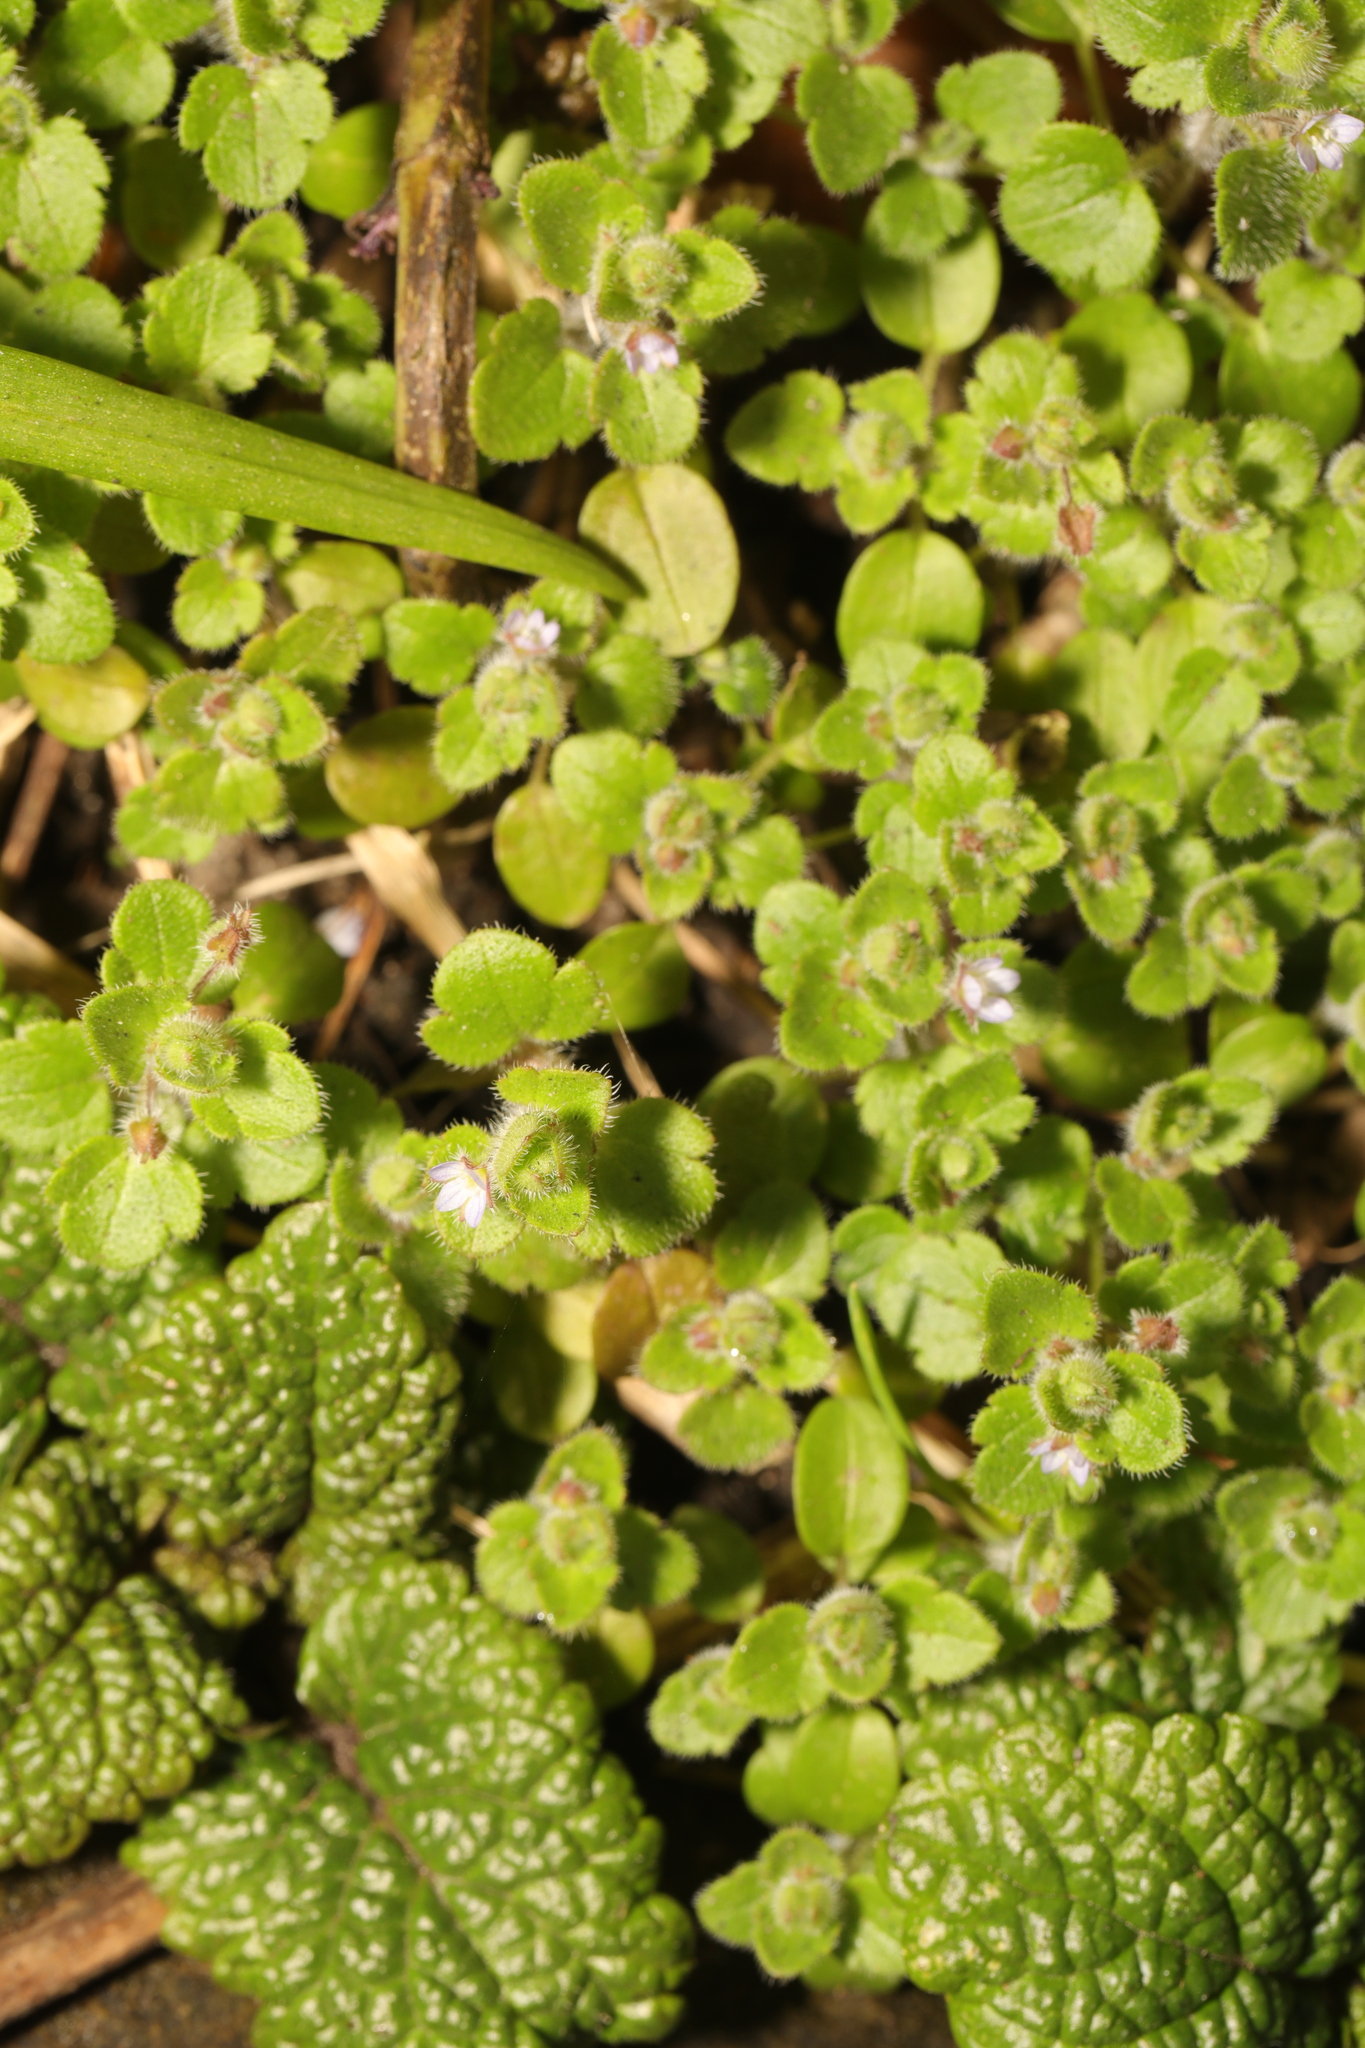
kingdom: Plantae
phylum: Tracheophyta
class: Magnoliopsida
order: Lamiales
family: Plantaginaceae
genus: Veronica
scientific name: Veronica sublobata
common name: False ivy-leaved speedwell
